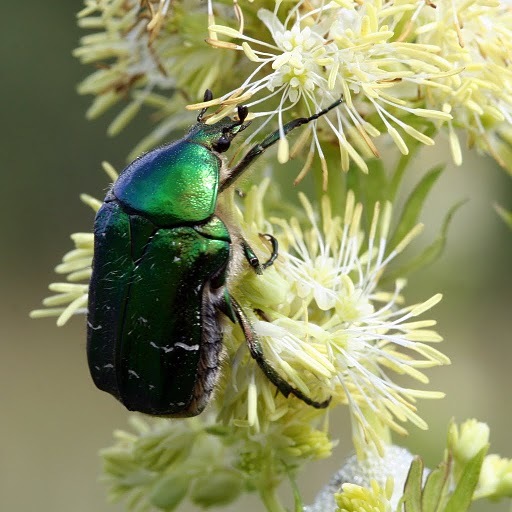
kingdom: Animalia
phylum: Arthropoda
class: Insecta
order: Coleoptera
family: Scarabaeidae
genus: Cetonia
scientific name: Cetonia aurata
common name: Rose chafer
